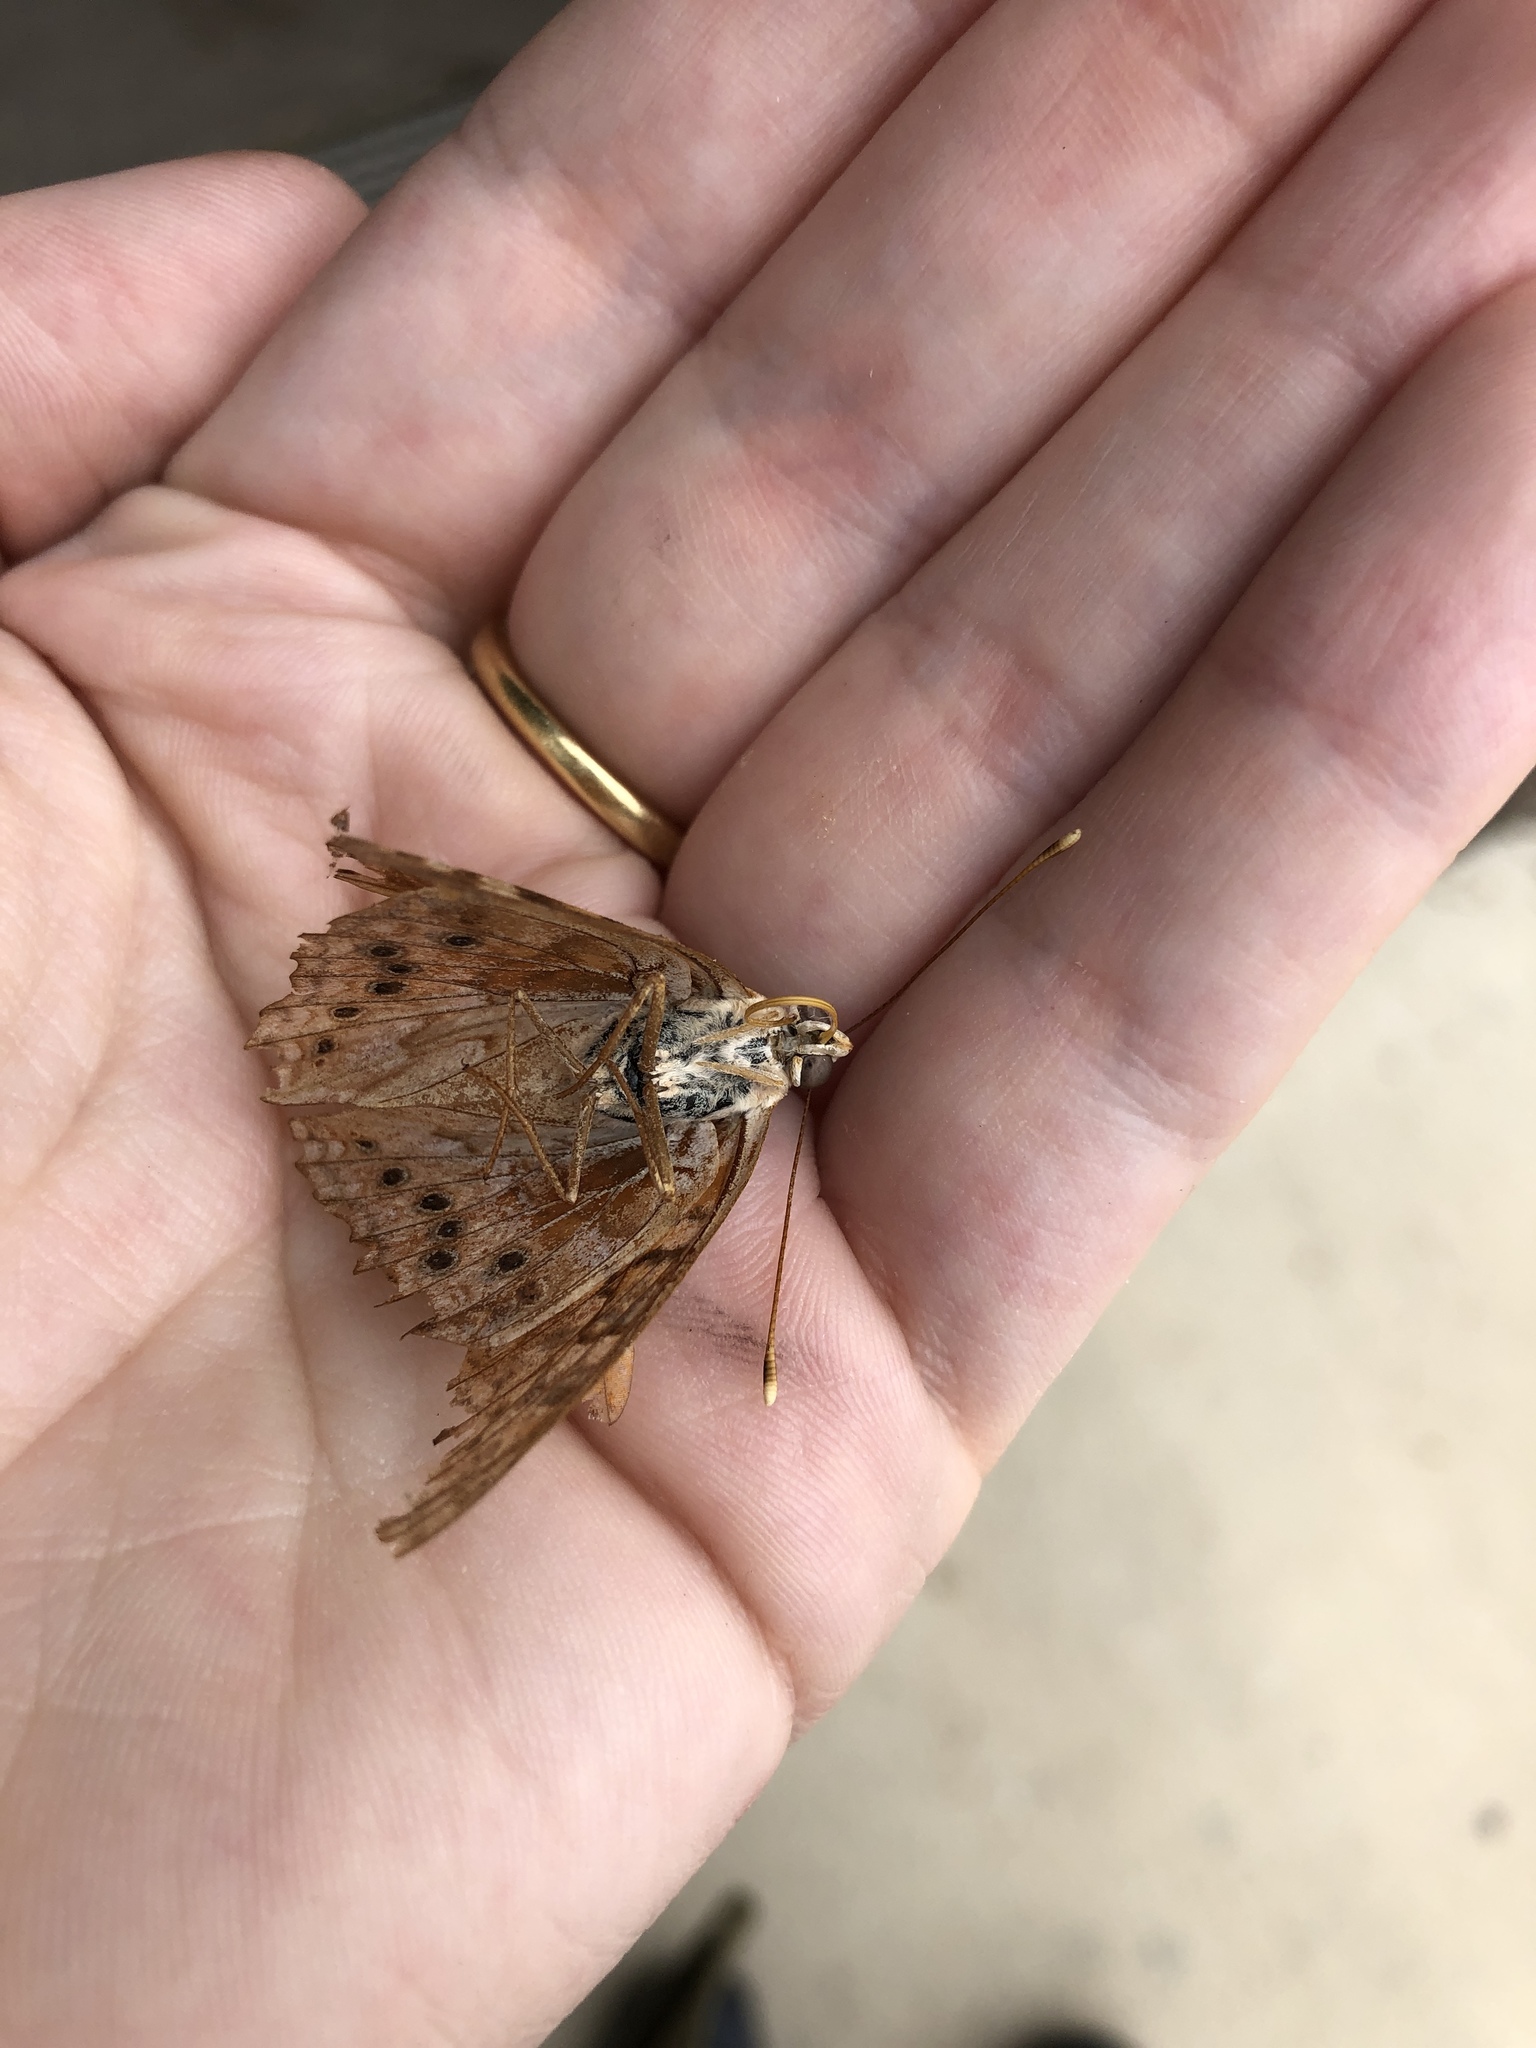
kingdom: Animalia
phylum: Arthropoda
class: Insecta
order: Lepidoptera
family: Nymphalidae
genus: Asterocampa
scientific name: Asterocampa clyton
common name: Tawny emperor
